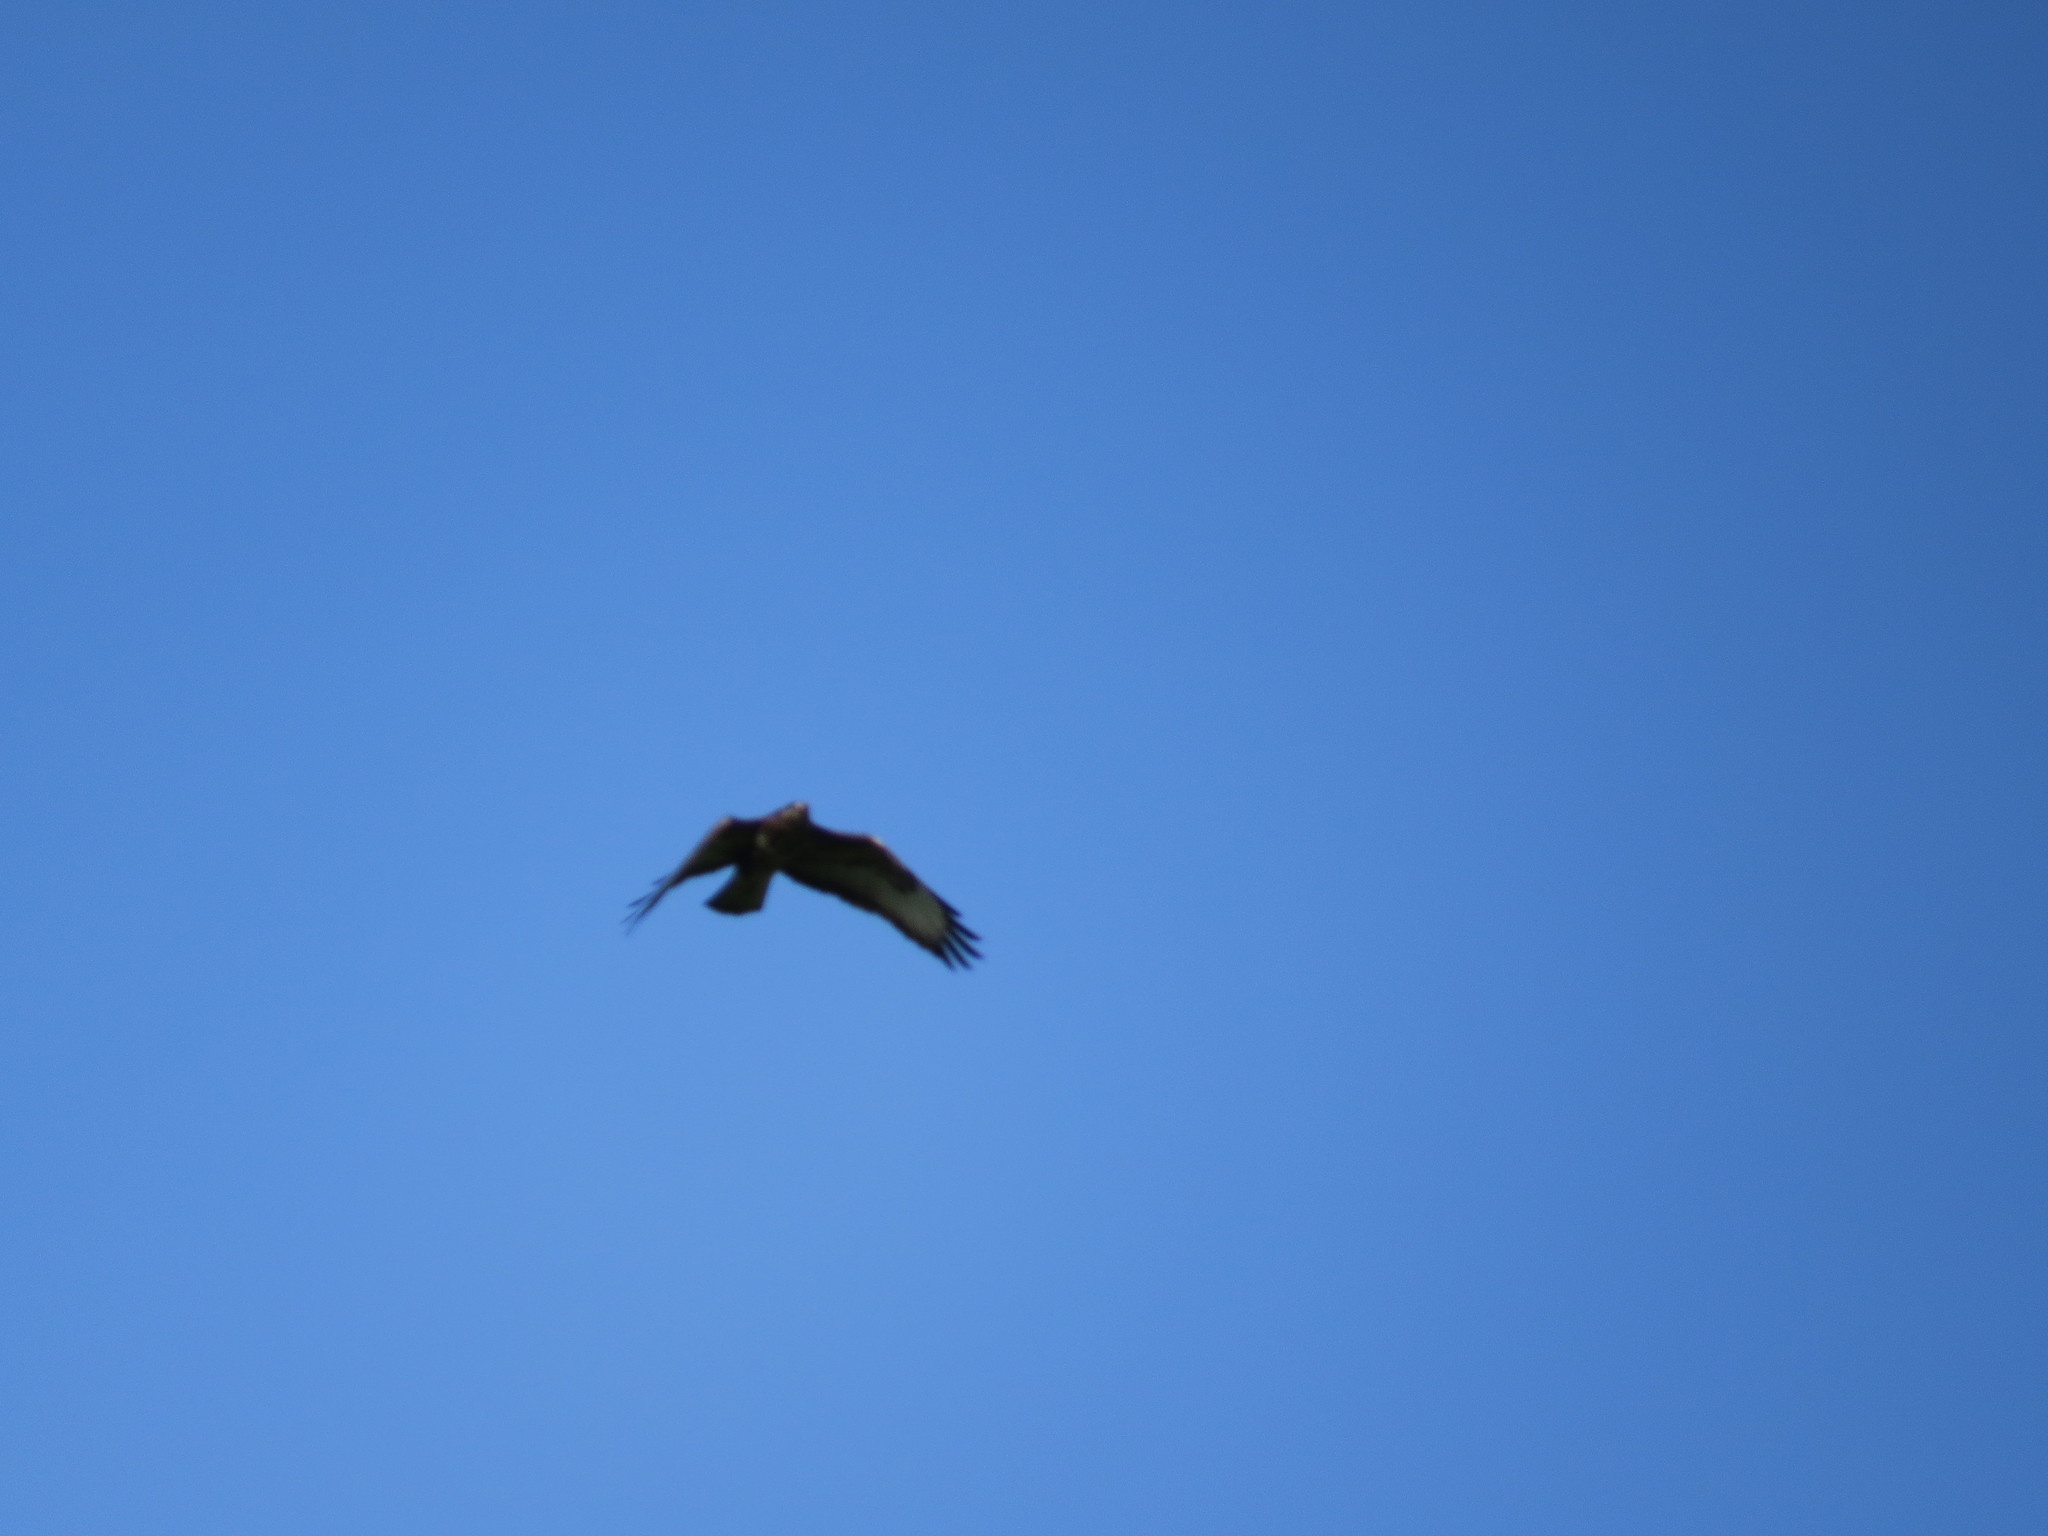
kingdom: Animalia
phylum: Chordata
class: Aves
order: Accipitriformes
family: Accipitridae
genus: Buteo
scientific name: Buteo buteo
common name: Common buzzard
